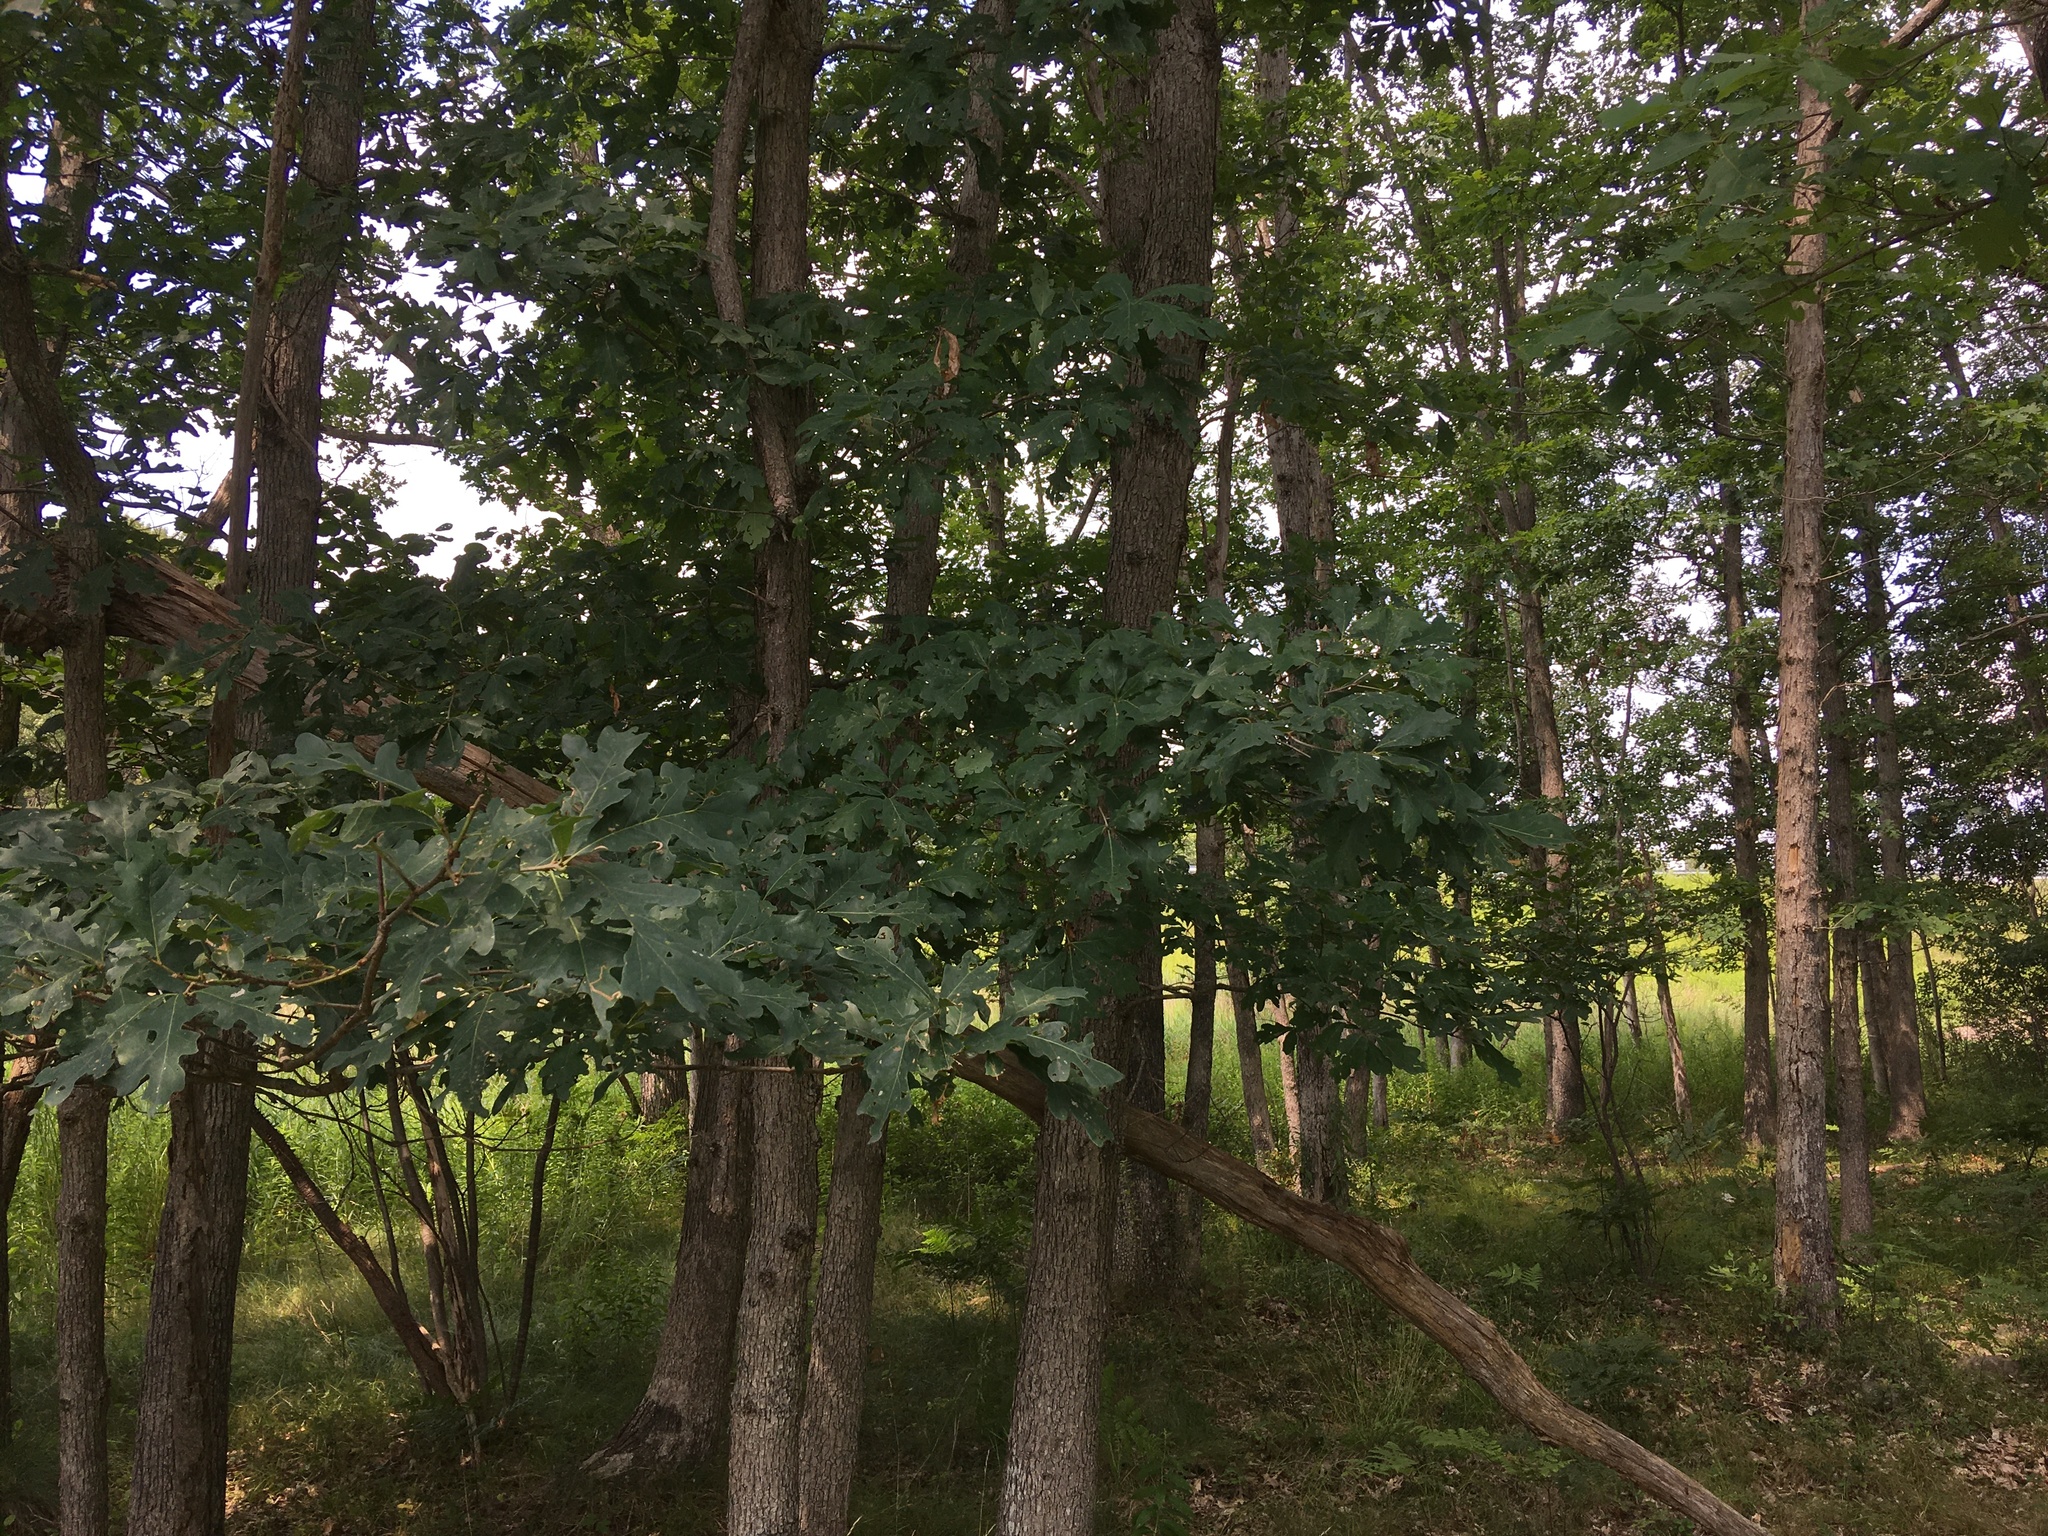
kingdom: Plantae
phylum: Tracheophyta
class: Magnoliopsida
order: Fagales
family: Fagaceae
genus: Quercus
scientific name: Quercus alba
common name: White oak
